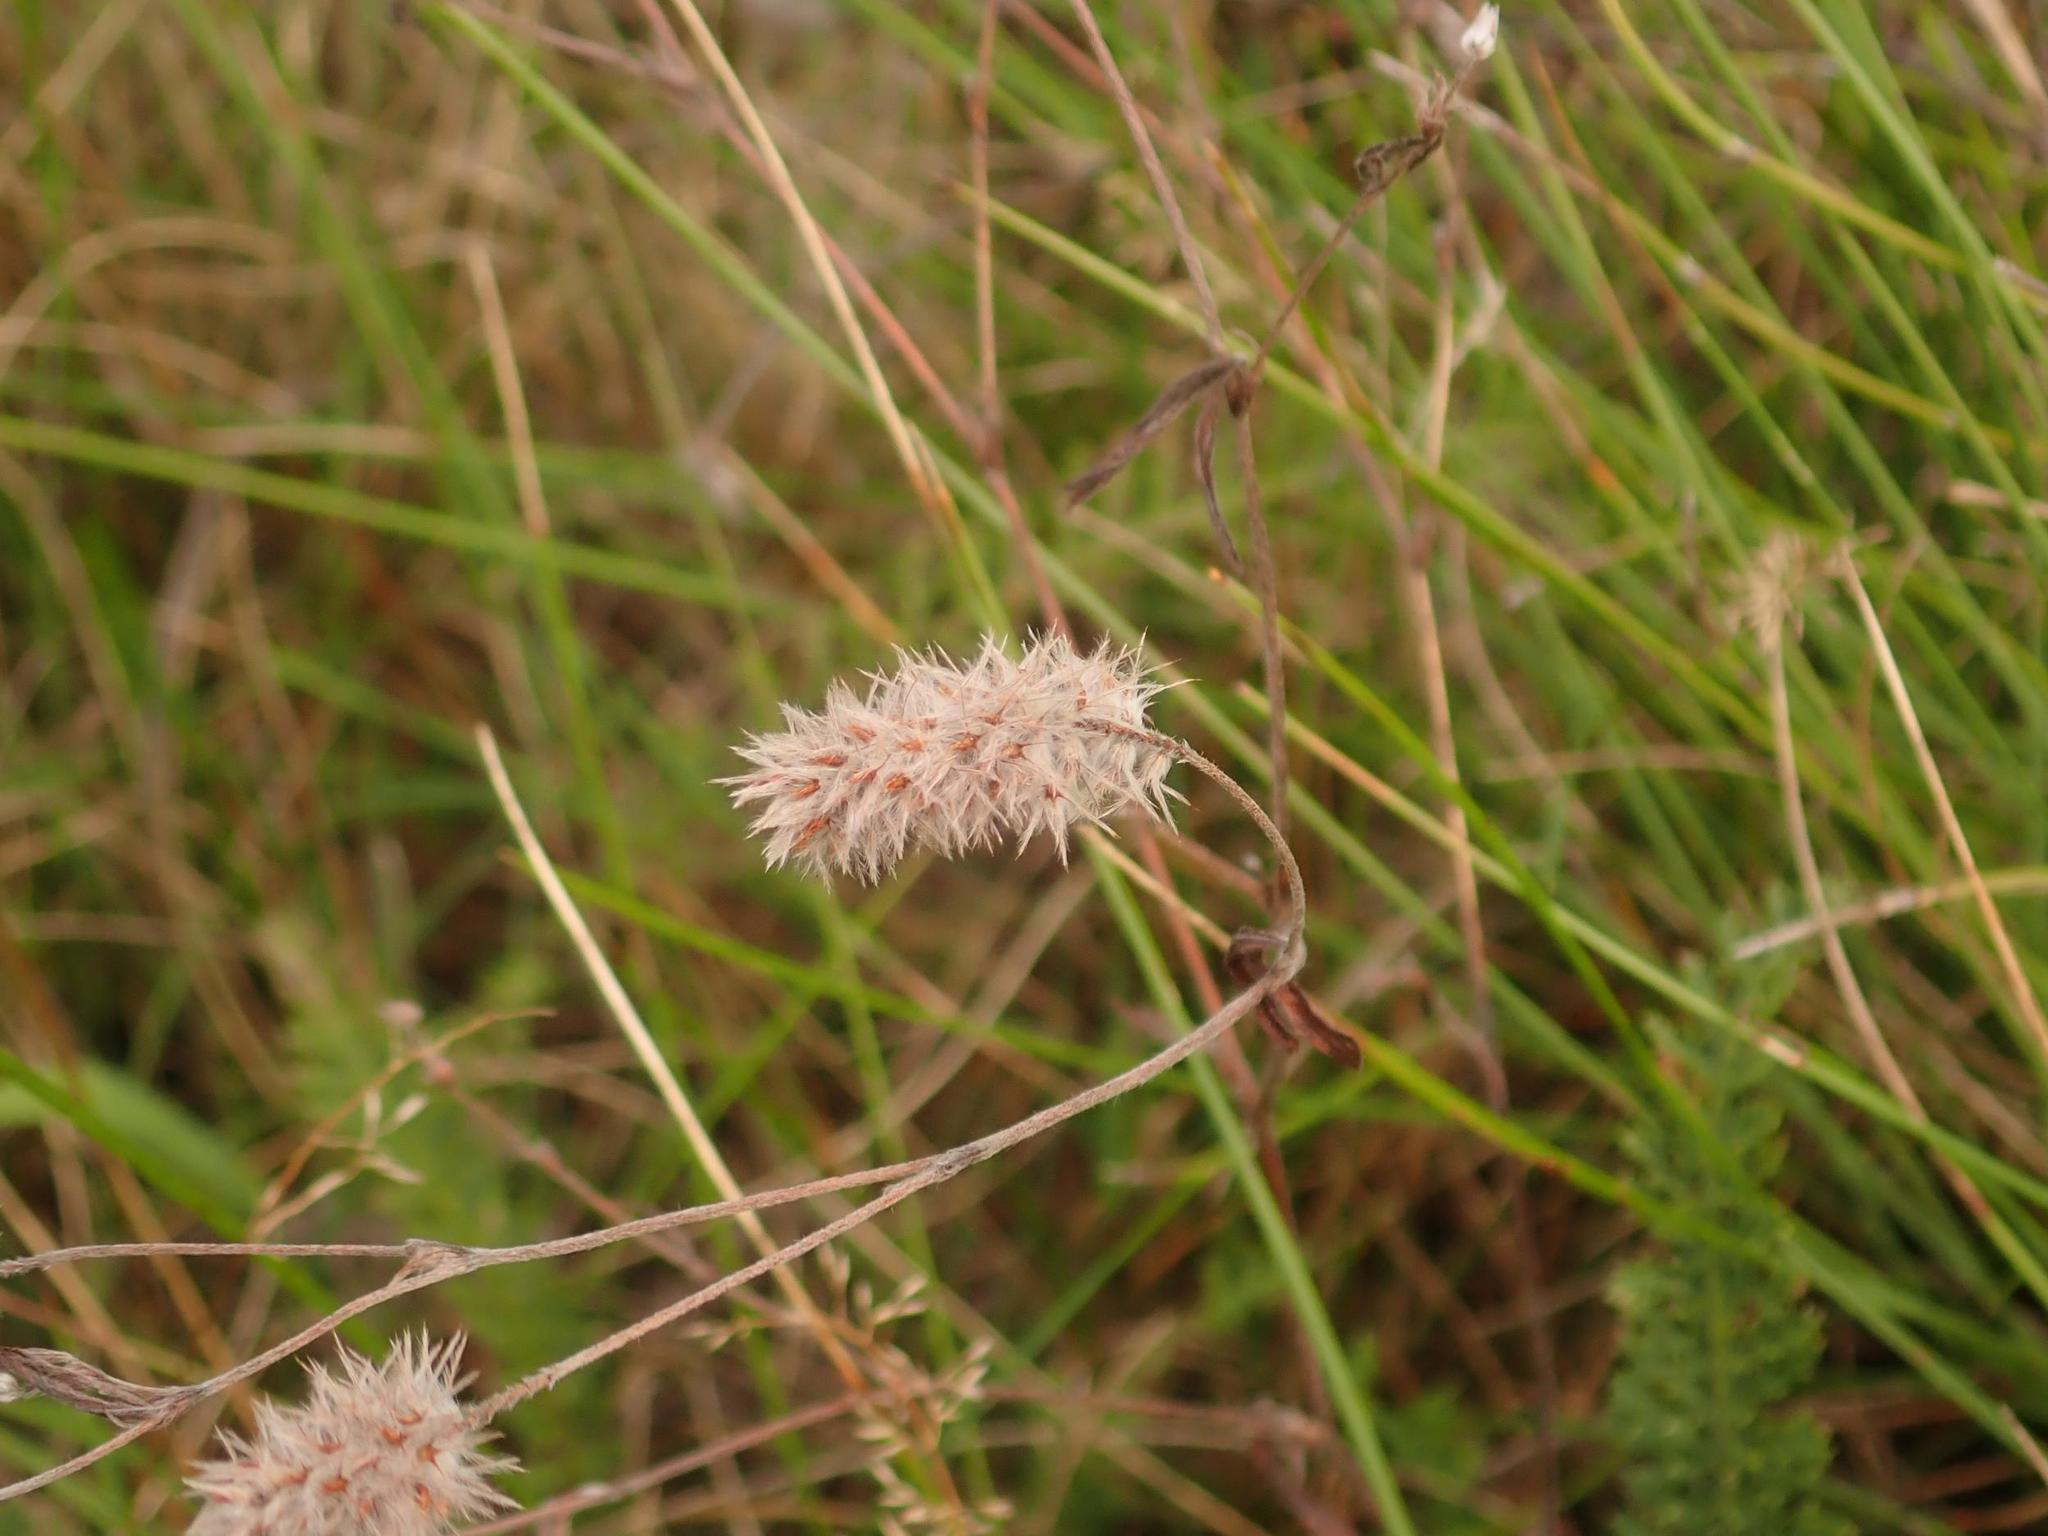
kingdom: Plantae
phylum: Tracheophyta
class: Magnoliopsida
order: Fabales
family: Fabaceae
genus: Trifolium
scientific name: Trifolium arvense
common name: Hare's-foot clover
